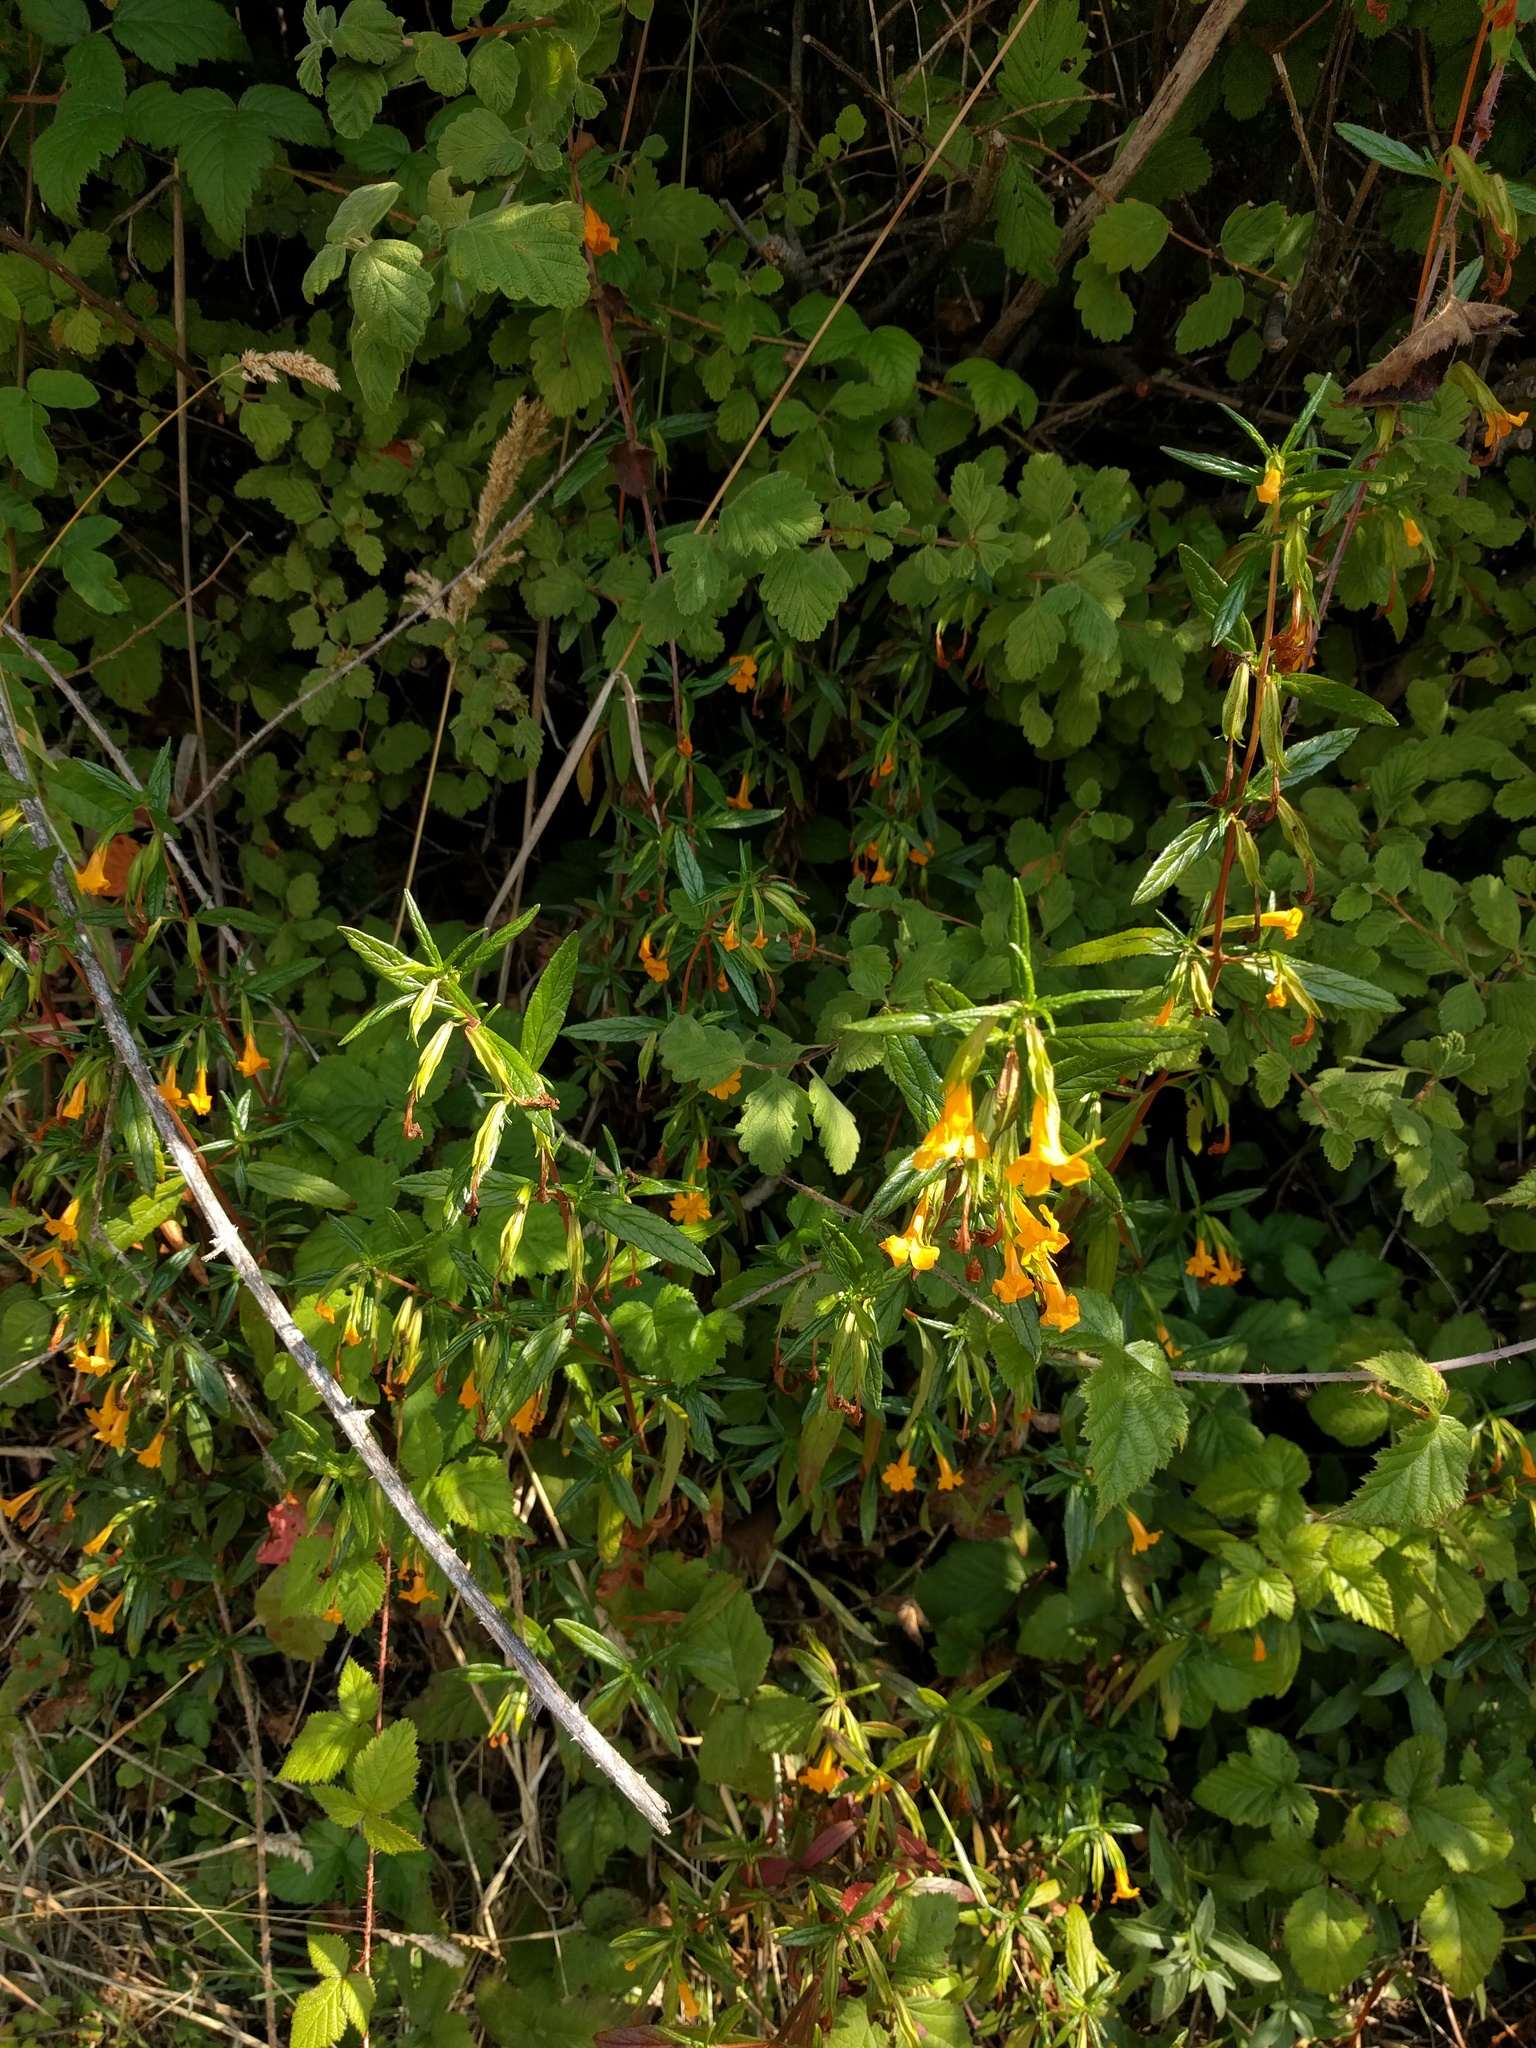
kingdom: Plantae
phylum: Tracheophyta
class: Magnoliopsida
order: Lamiales
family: Phrymaceae
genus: Diplacus
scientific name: Diplacus aurantiacus
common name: Bush monkey-flower
